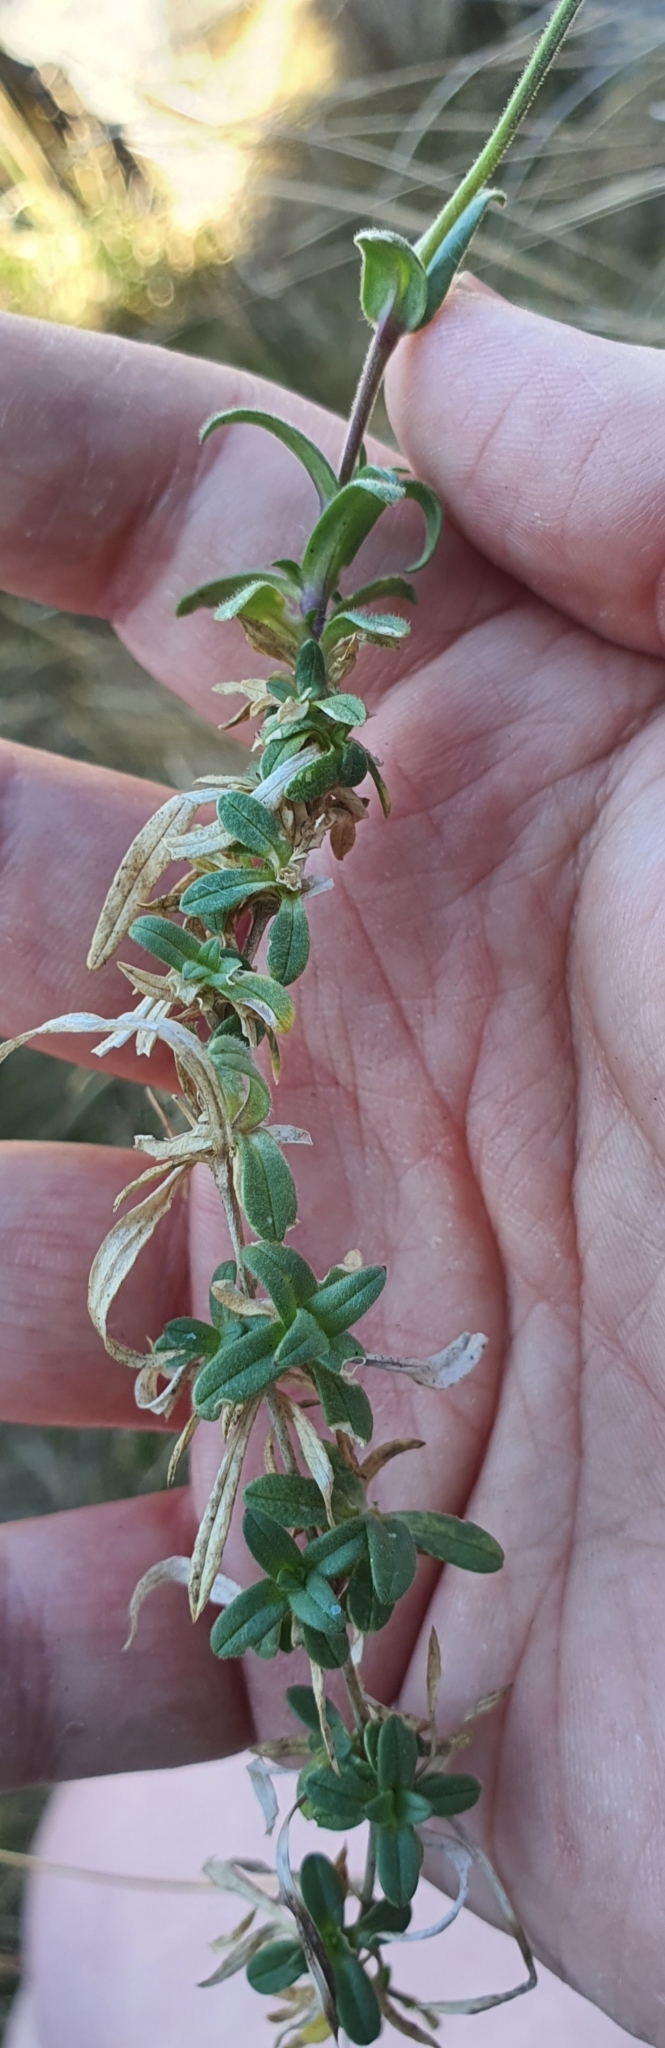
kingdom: Plantae
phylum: Tracheophyta
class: Magnoliopsida
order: Caryophyllales
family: Caryophyllaceae
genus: Cerastium
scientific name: Cerastium fontanum
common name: Common mouse-ear
